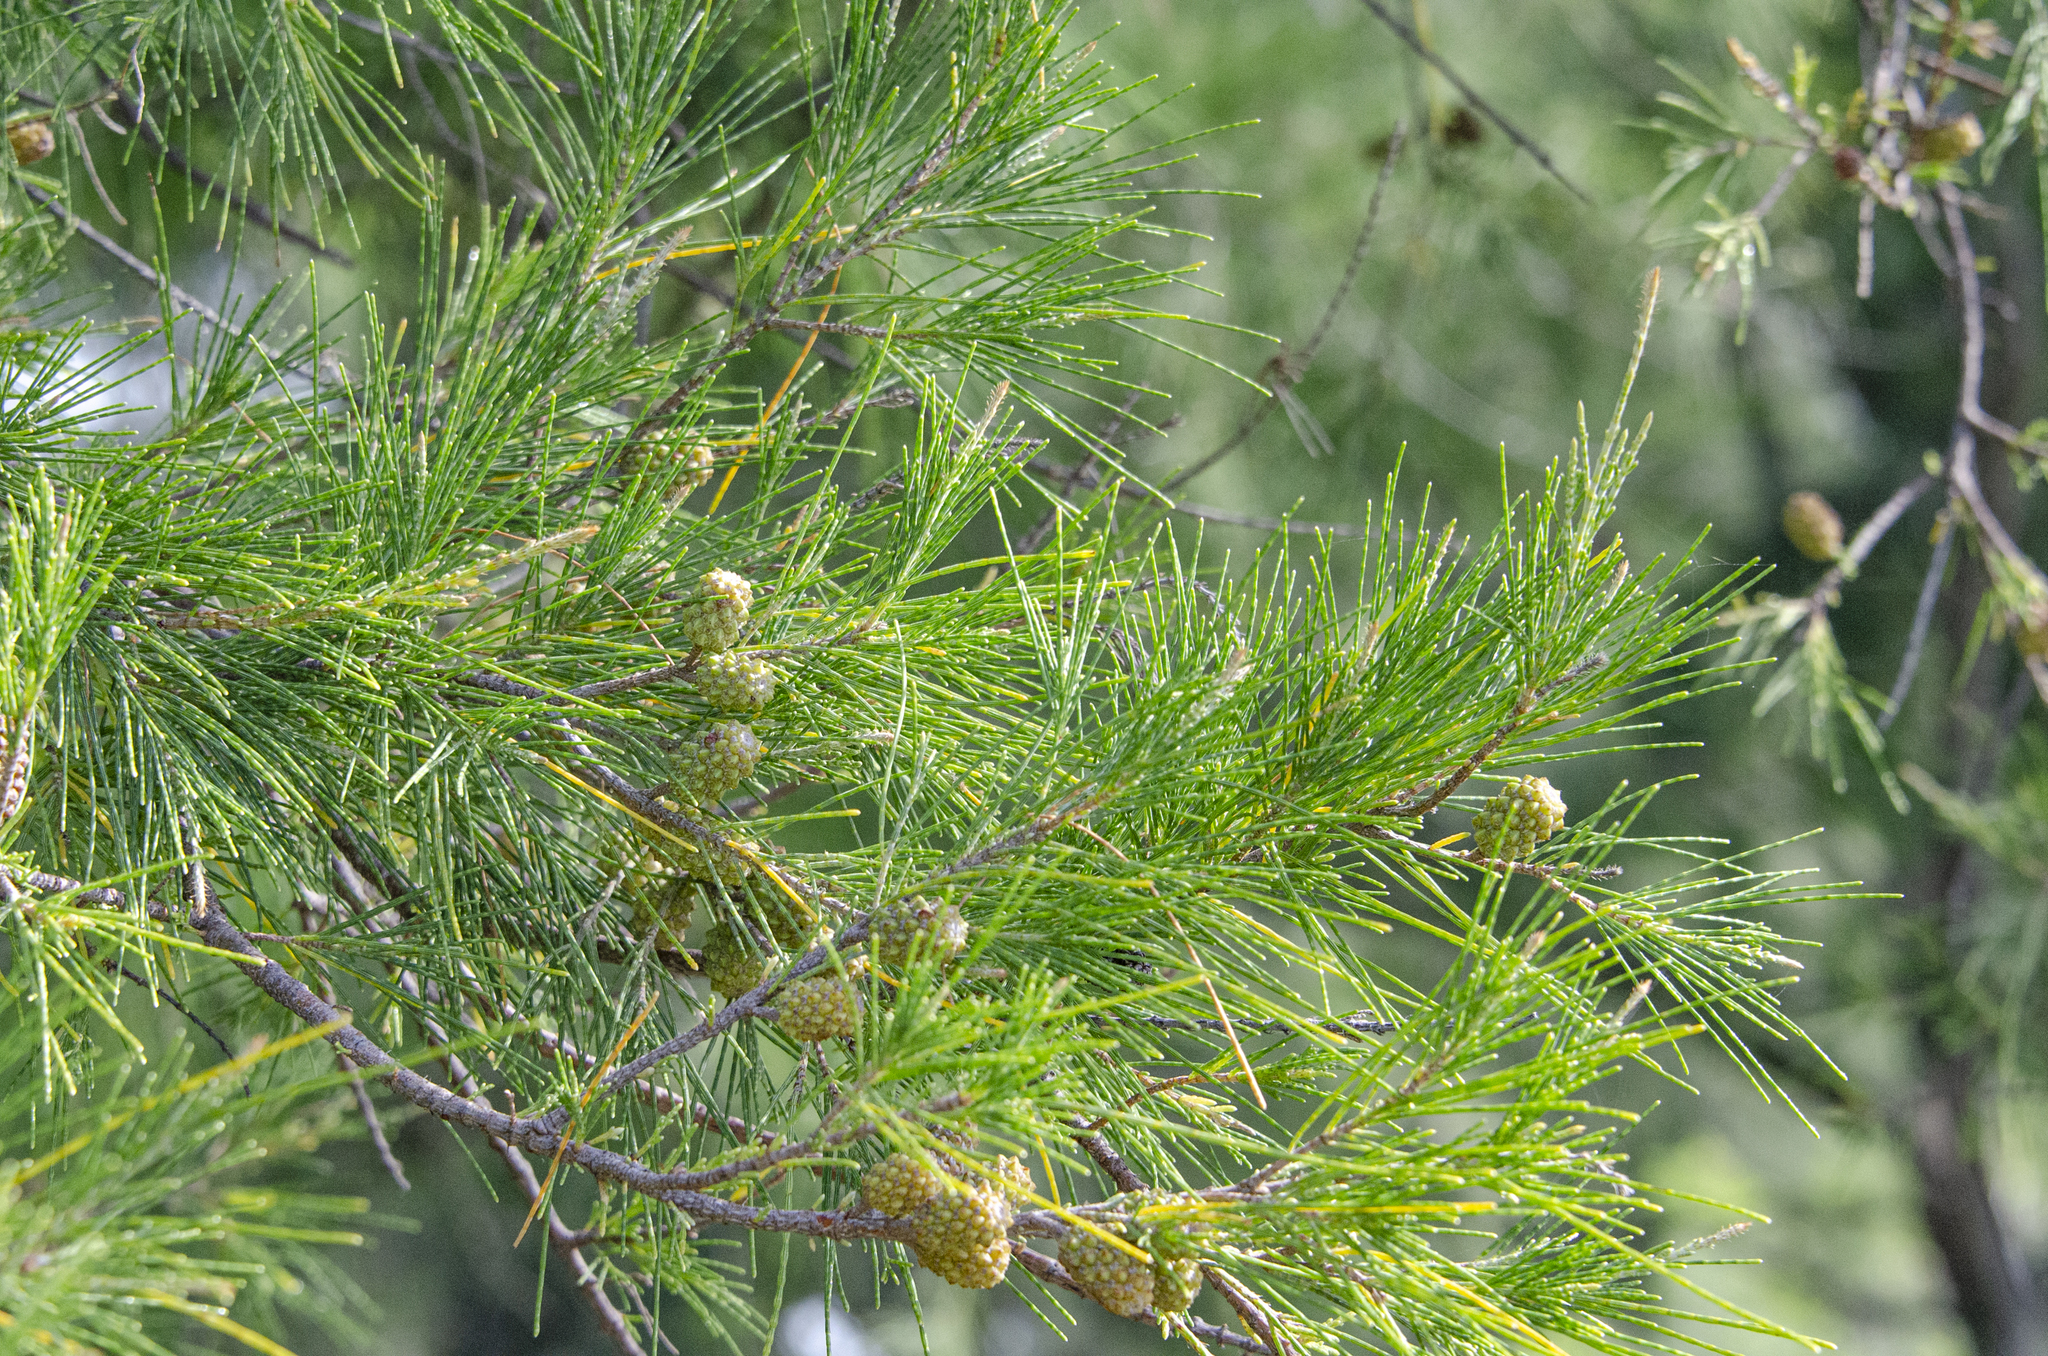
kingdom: Plantae
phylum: Tracheophyta
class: Magnoliopsida
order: Fagales
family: Casuarinaceae
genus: Casuarina
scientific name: Casuarina equisetifolia
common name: Beach sheoak
